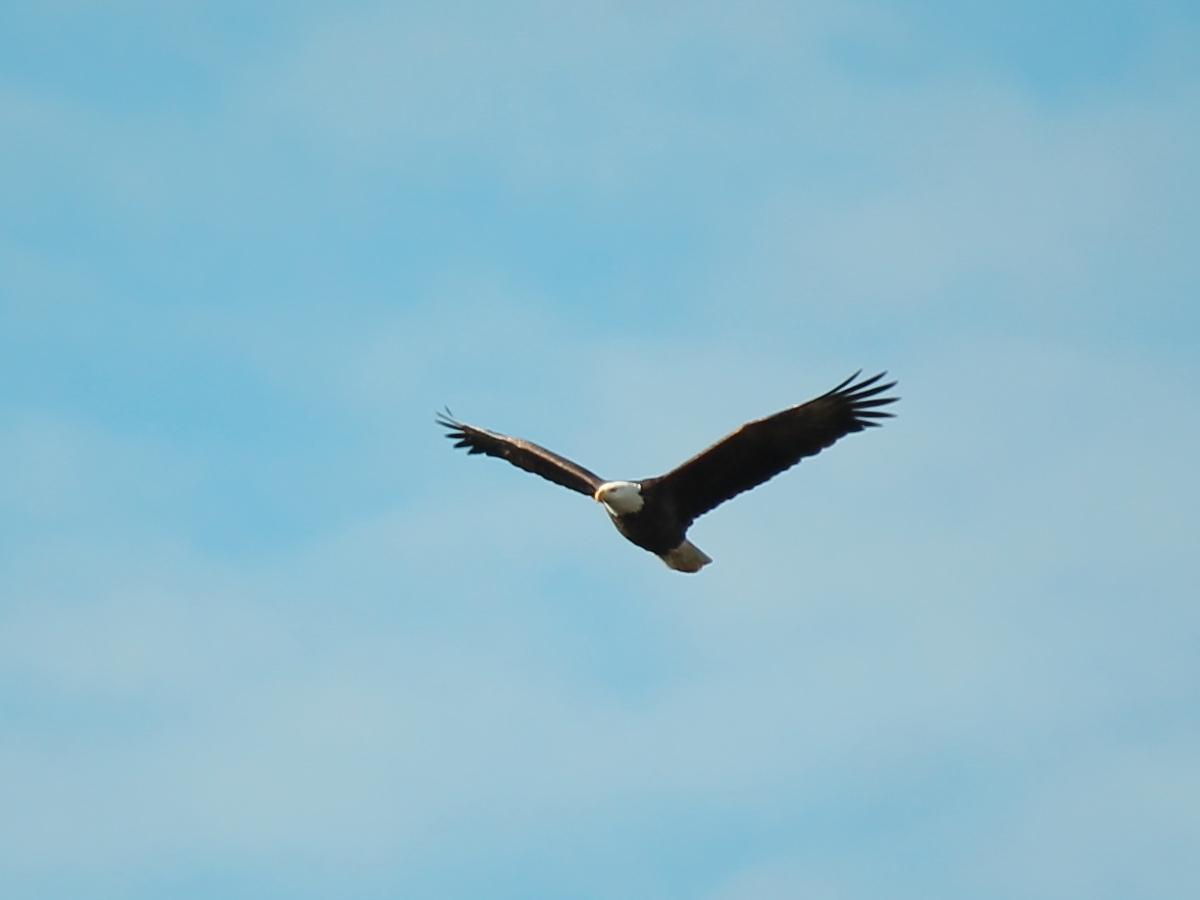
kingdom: Animalia
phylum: Chordata
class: Aves
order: Accipitriformes
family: Accipitridae
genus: Haliaeetus
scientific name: Haliaeetus leucocephalus
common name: Bald eagle
